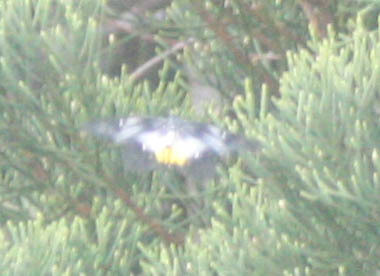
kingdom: Animalia
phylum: Arthropoda
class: Insecta
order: Lepidoptera
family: Pieridae
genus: Delias
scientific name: Delias pasithoe
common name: Red-base jezebel
